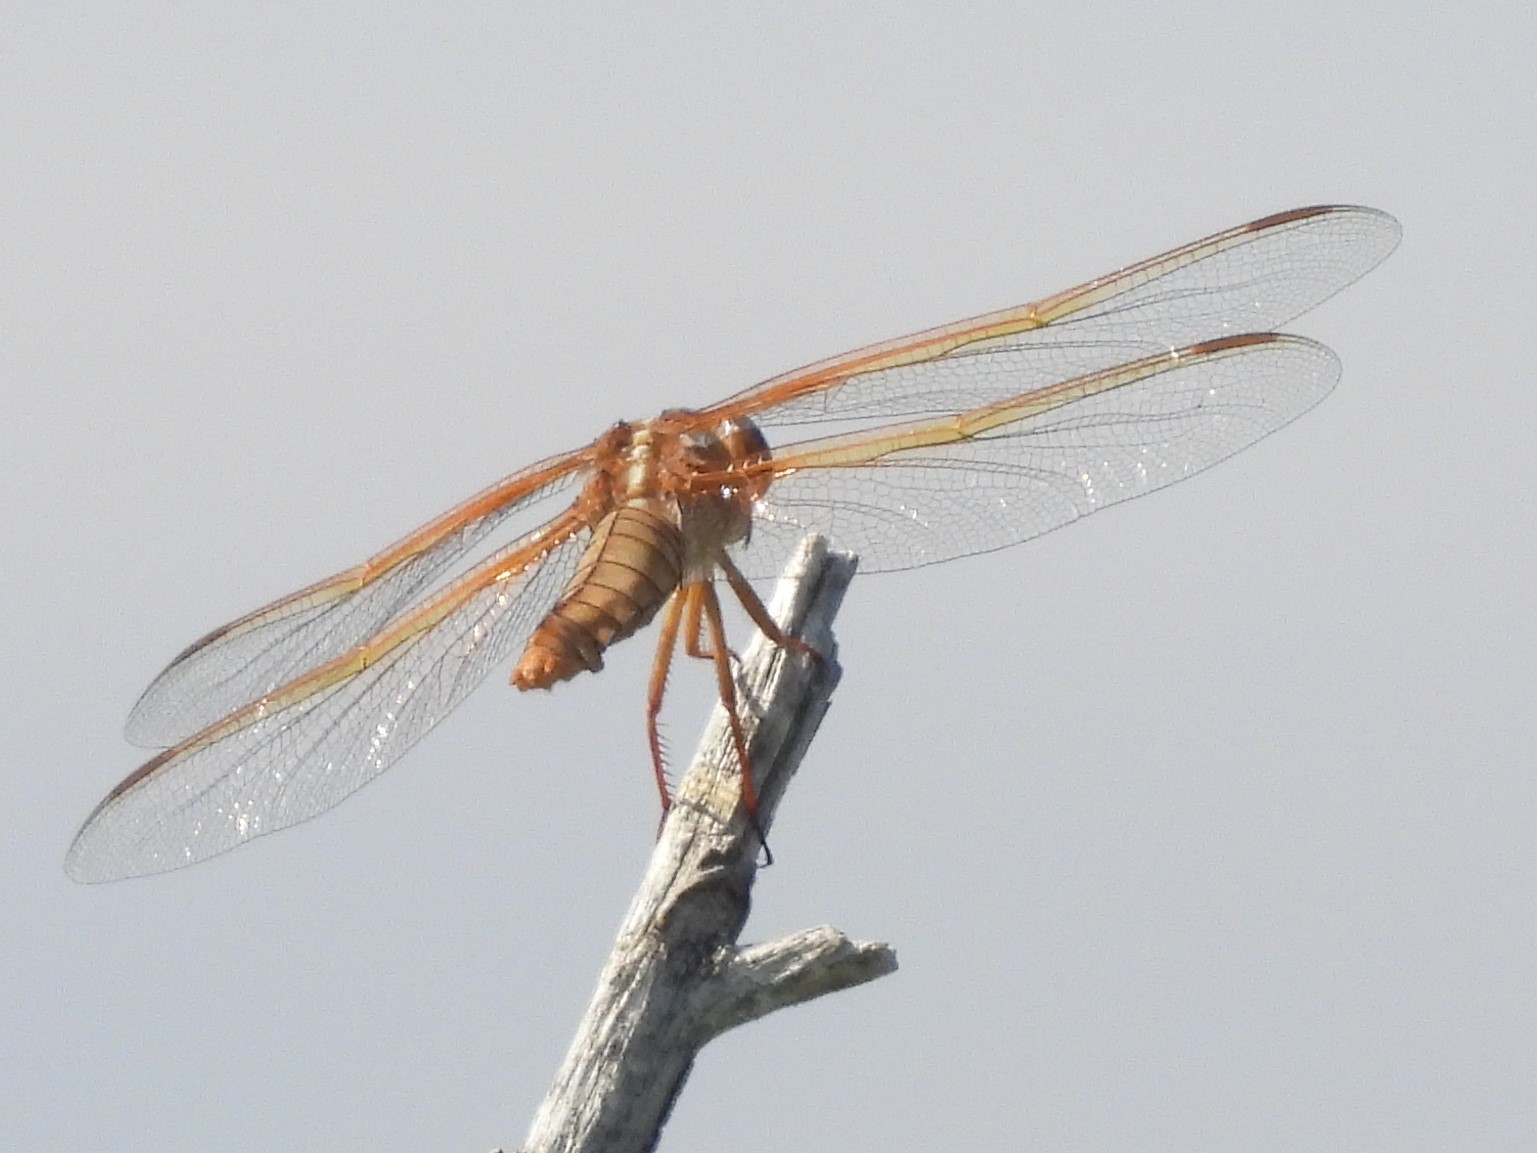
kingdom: Animalia
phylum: Arthropoda
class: Insecta
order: Odonata
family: Libellulidae
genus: Libellula
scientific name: Libellula saturata
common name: Flame skimmer
